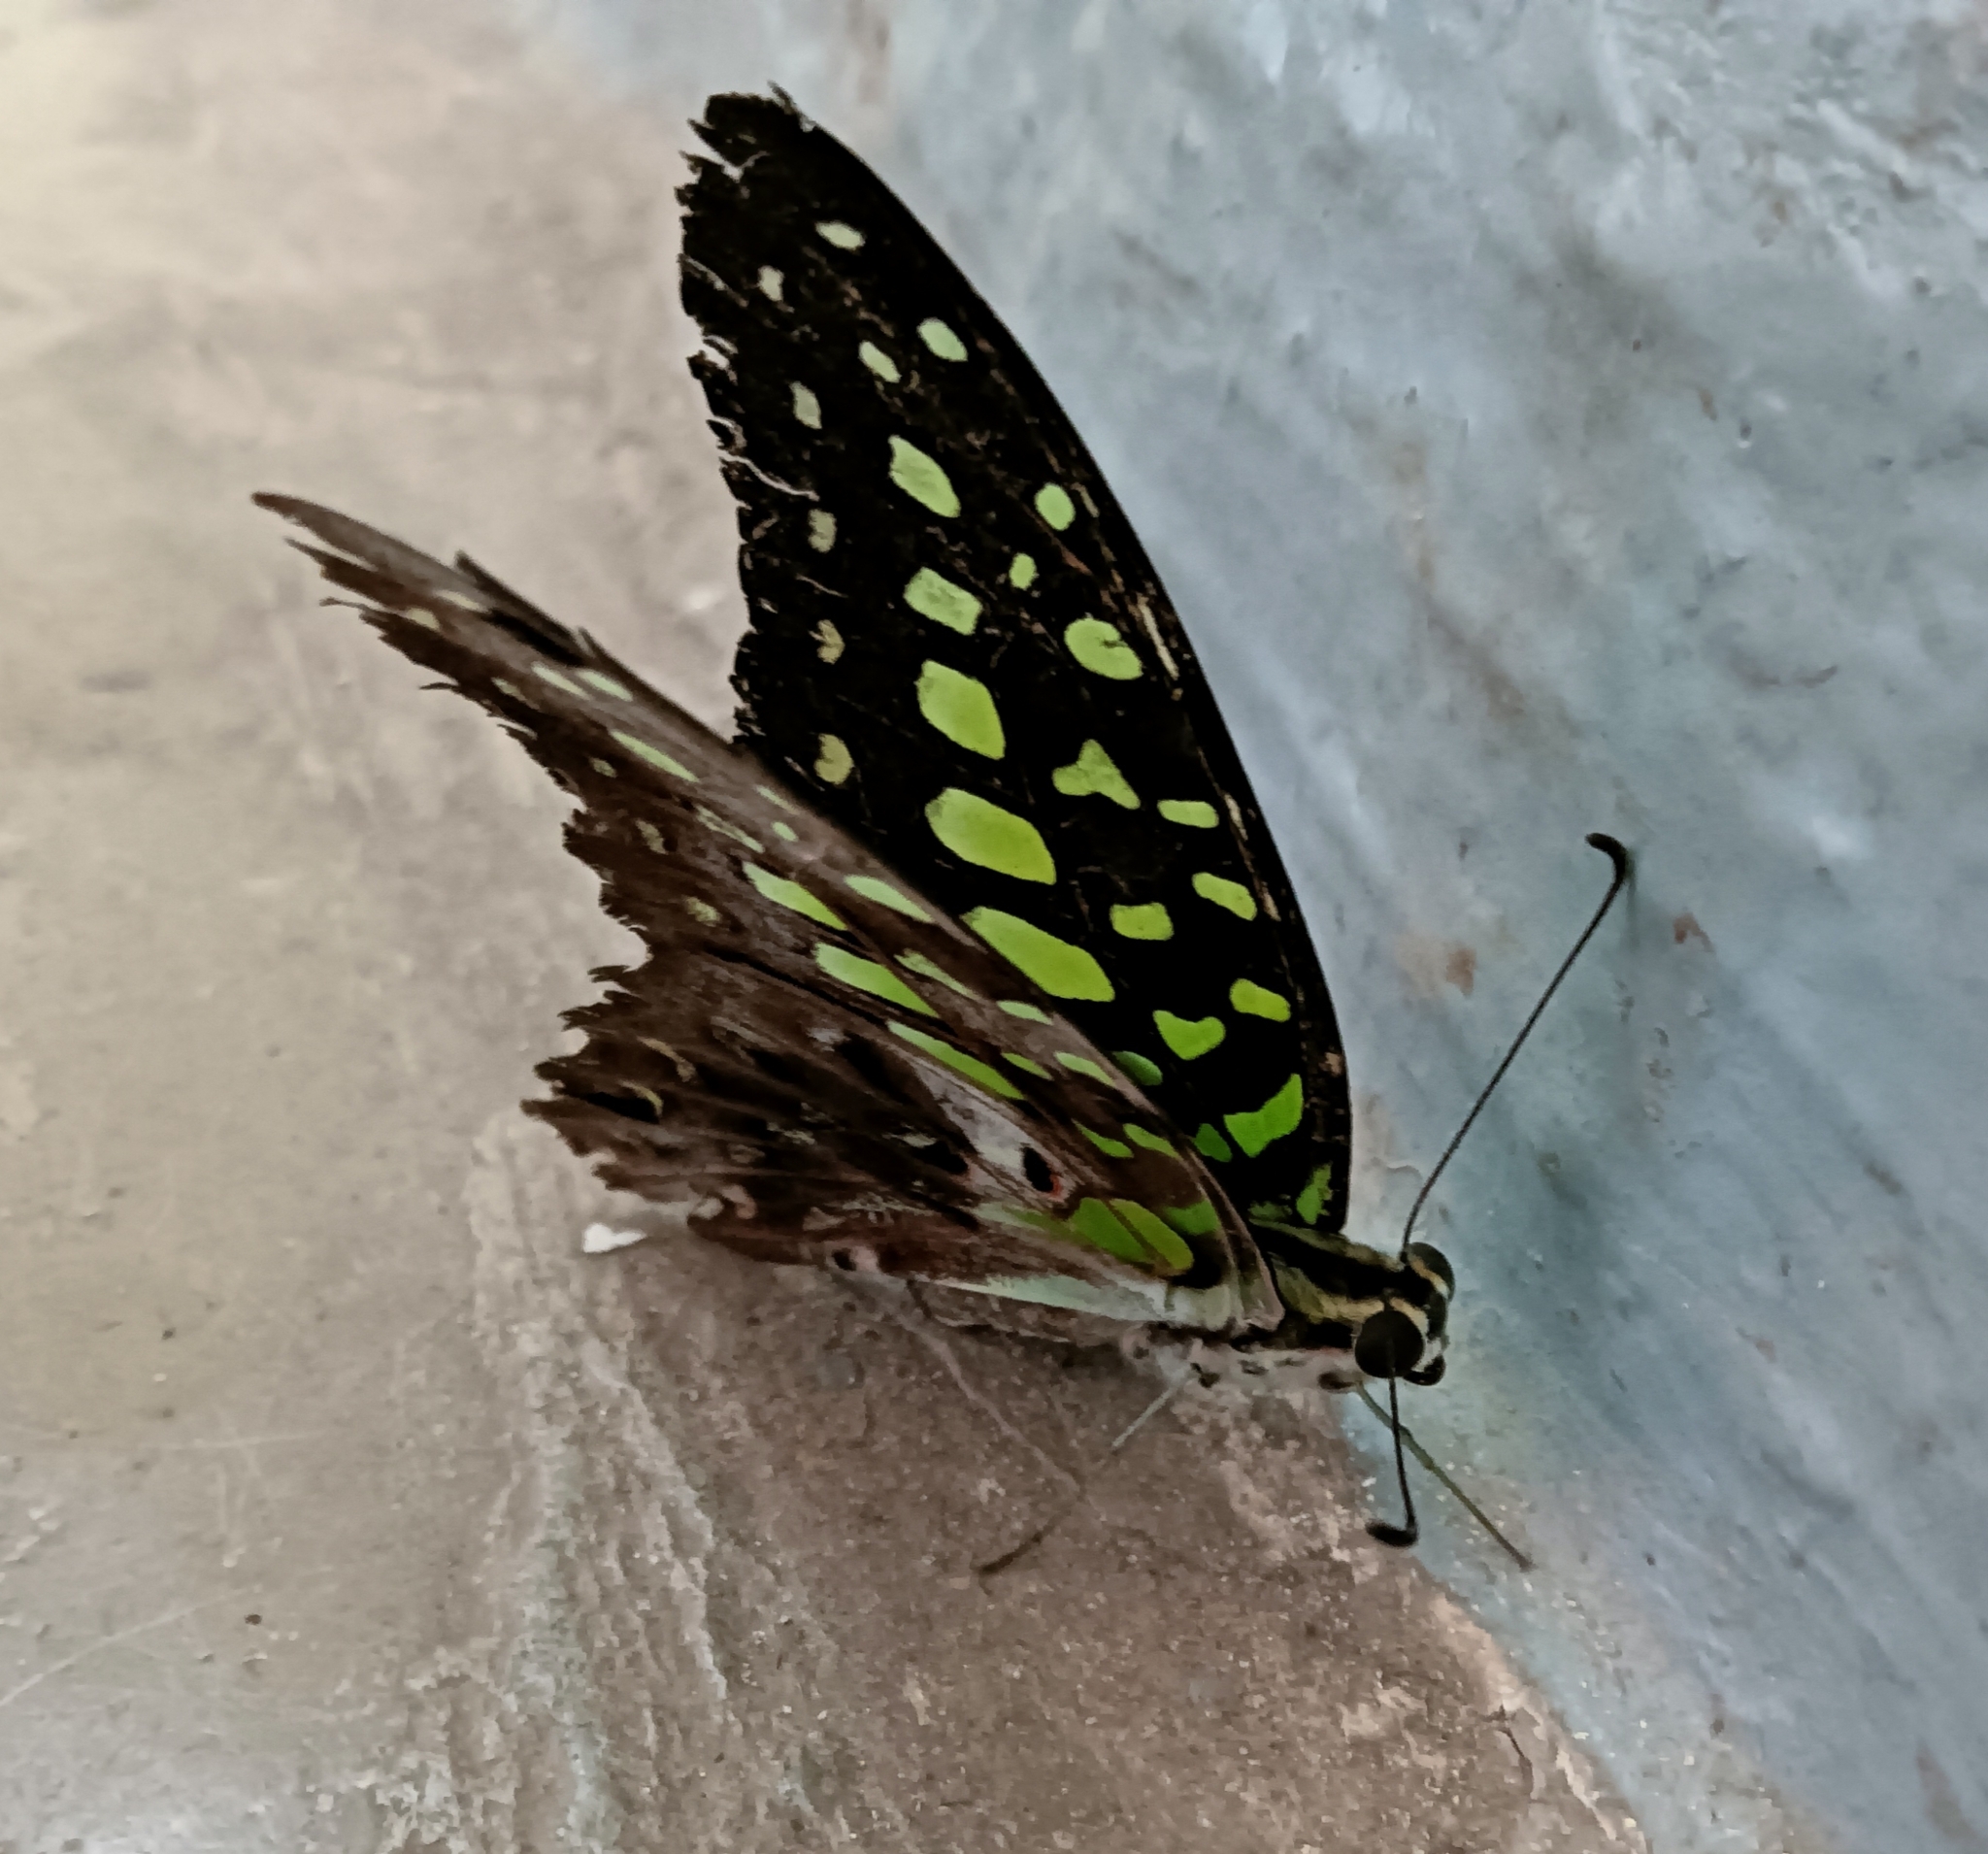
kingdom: Animalia
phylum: Arthropoda
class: Insecta
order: Lepidoptera
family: Papilionidae
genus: Graphium
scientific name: Graphium agamemnon
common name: Tailed jay
